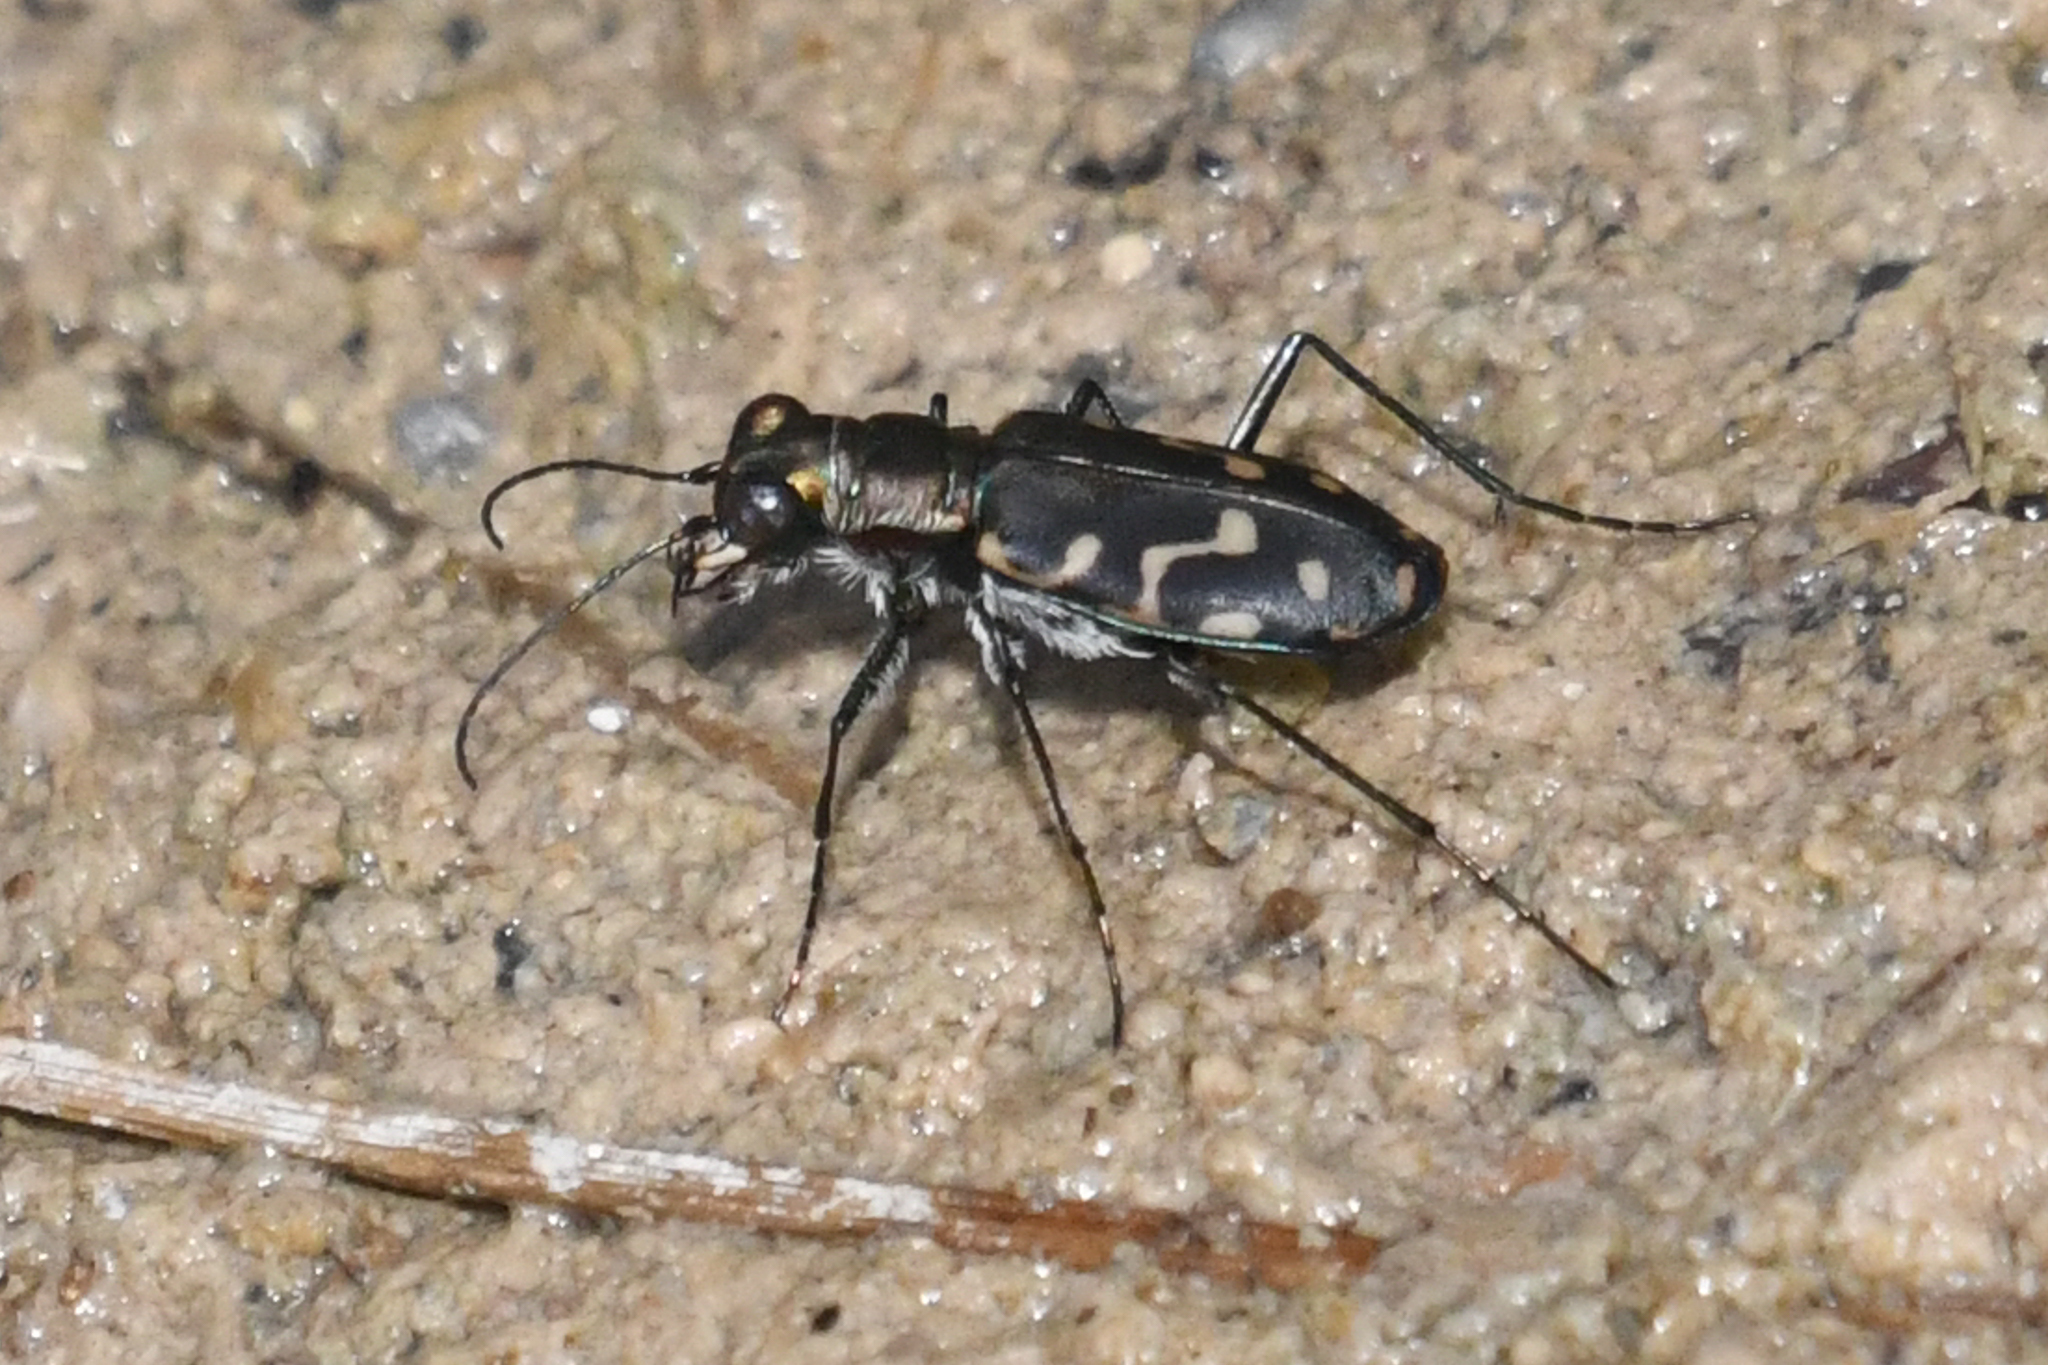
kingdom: Animalia
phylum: Arthropoda
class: Insecta
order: Coleoptera
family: Carabidae
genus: Cicindela
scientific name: Cicindela hemorrhagica
